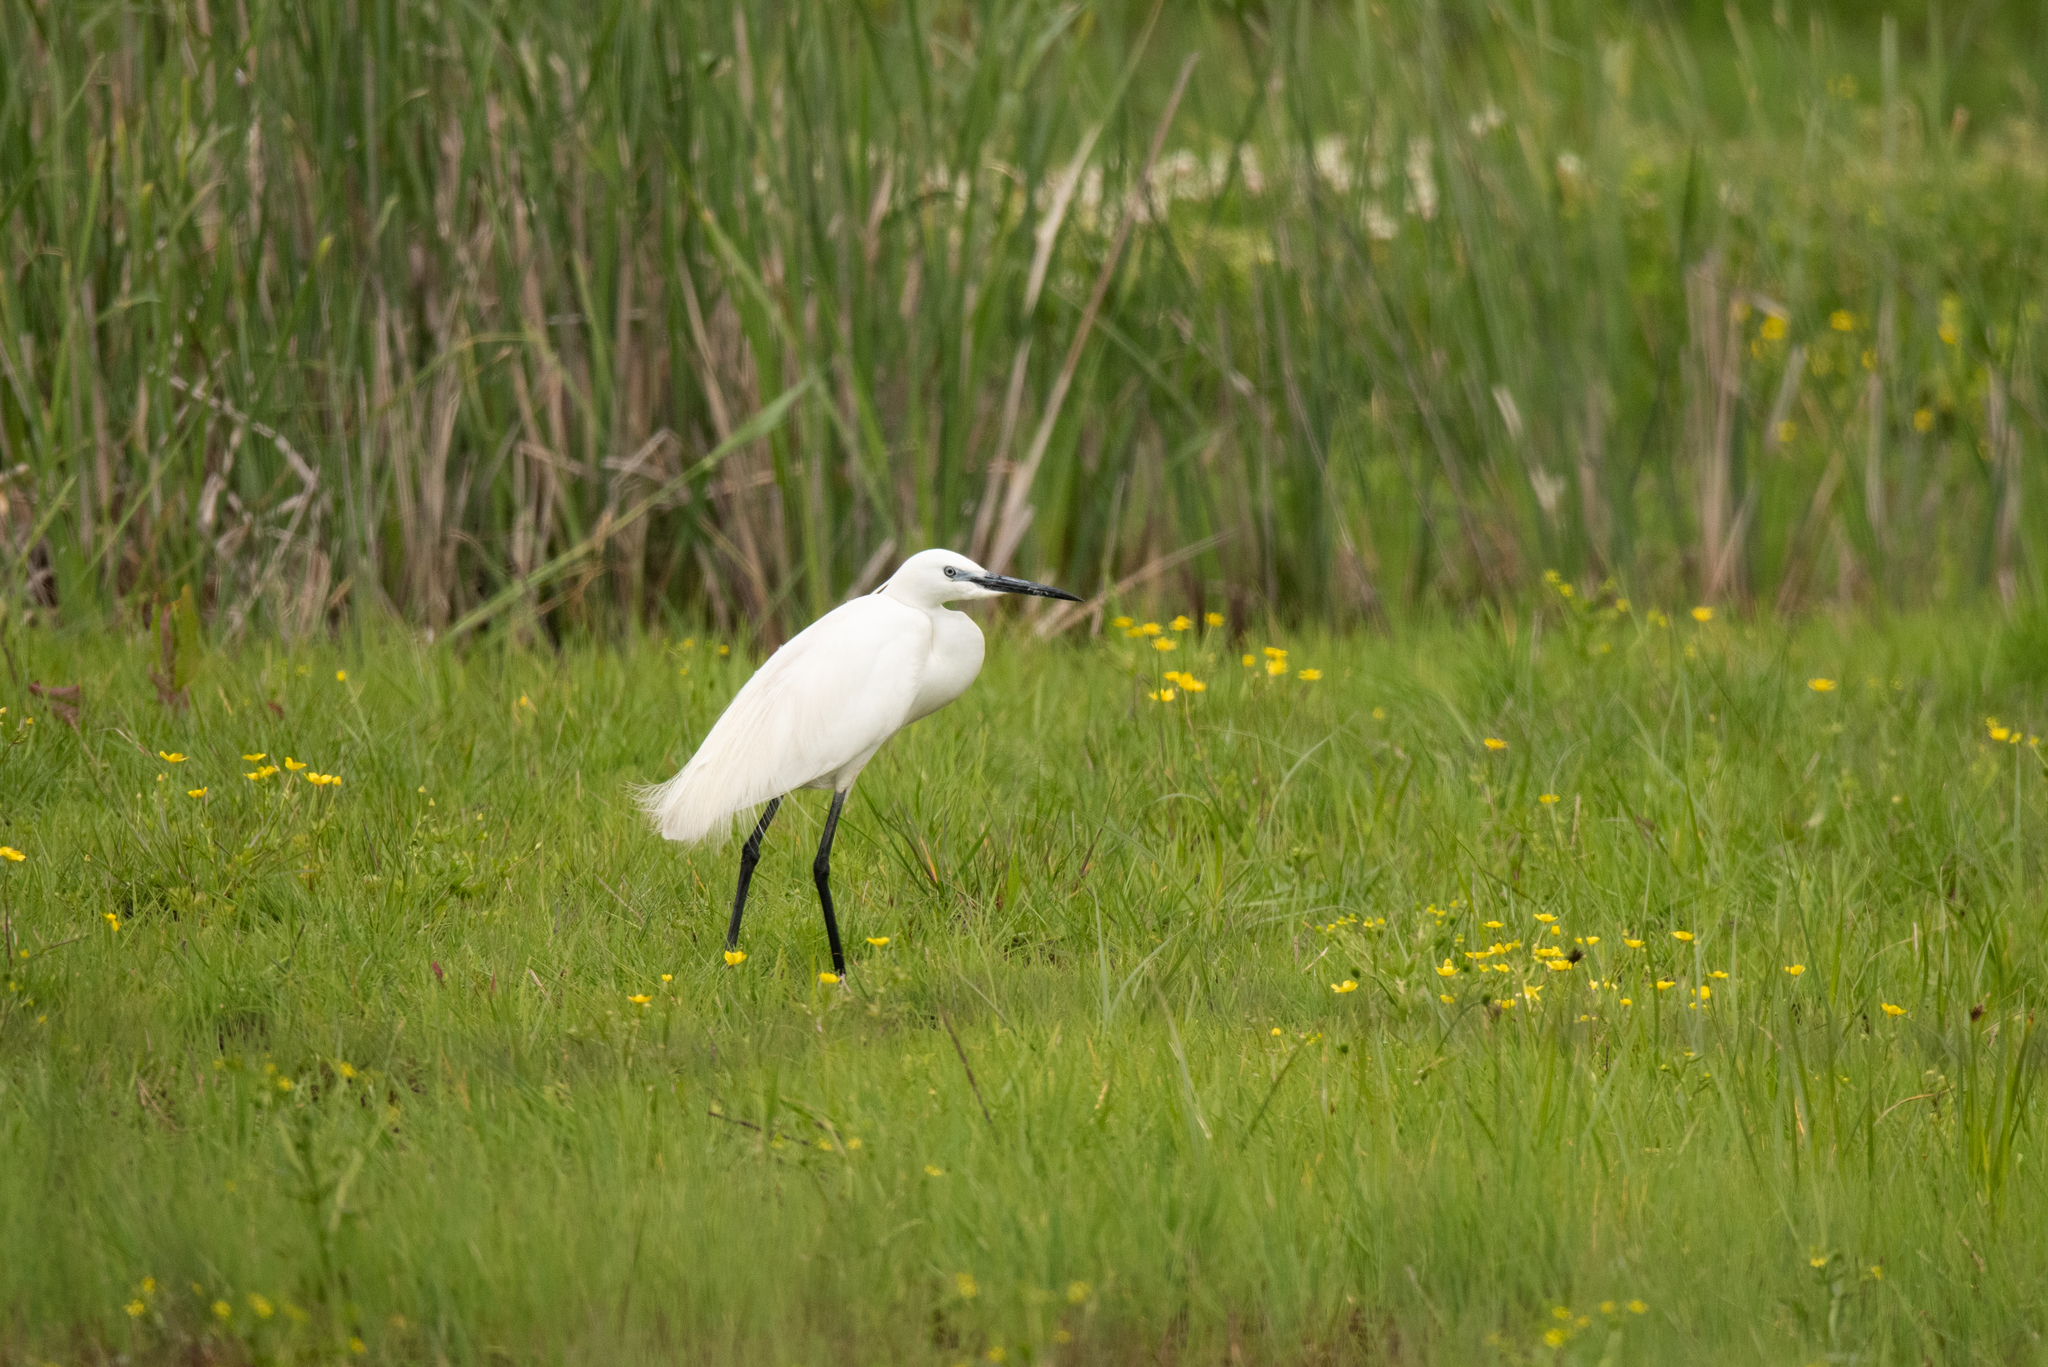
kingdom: Animalia
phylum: Chordata
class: Aves
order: Pelecaniformes
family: Ardeidae
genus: Egretta
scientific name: Egretta garzetta
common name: Little egret
